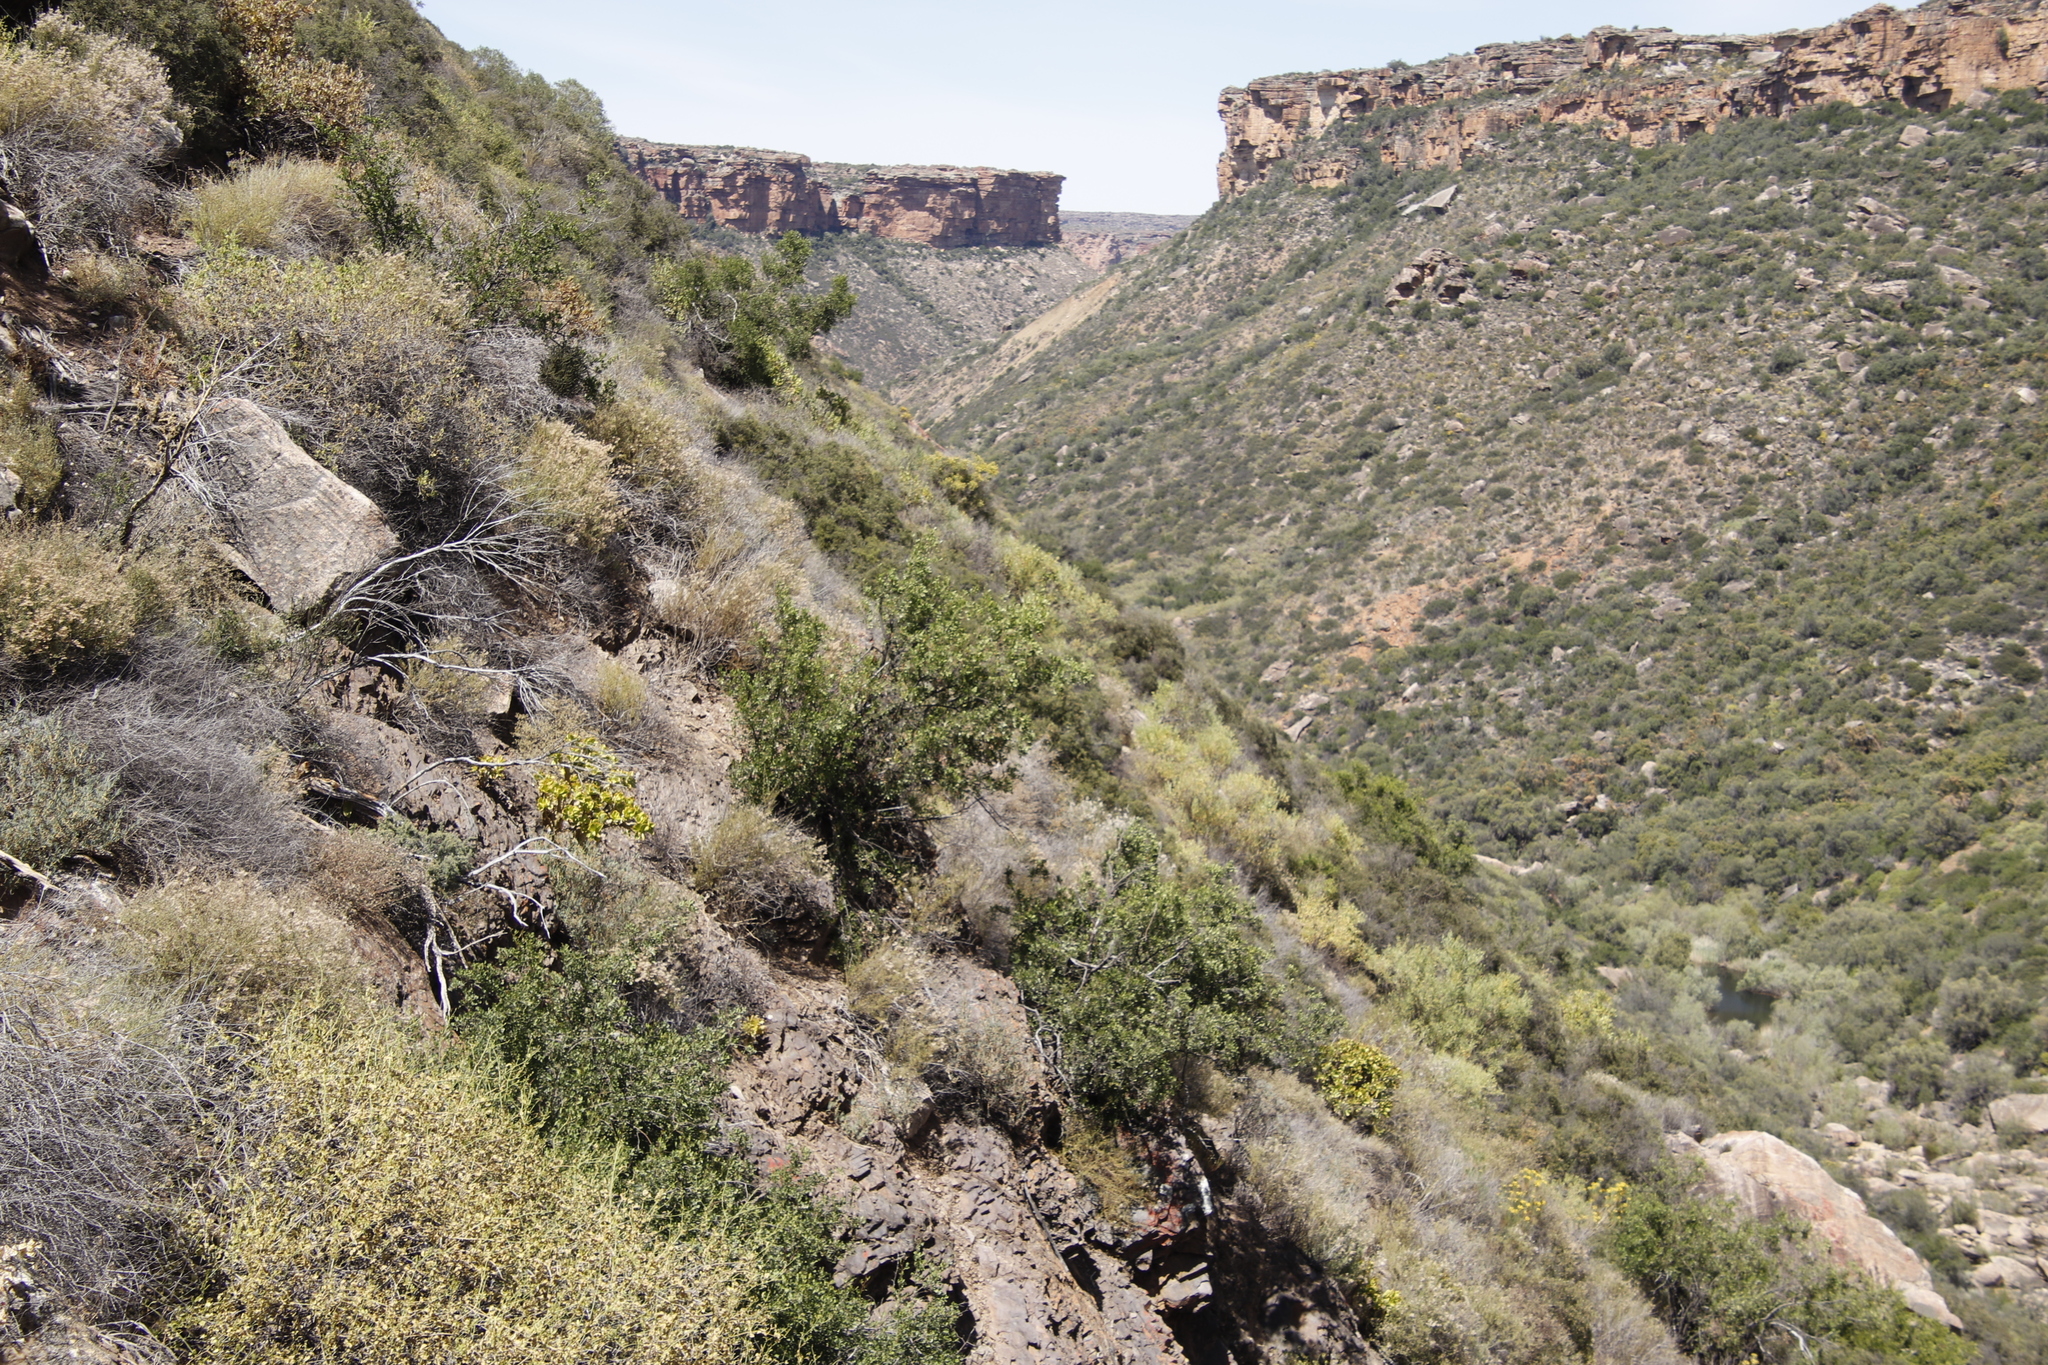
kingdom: Plantae
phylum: Tracheophyta
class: Magnoliopsida
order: Sapindales
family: Anacardiaceae
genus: Searsia
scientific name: Searsia undulata
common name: Namaqua kunibush
